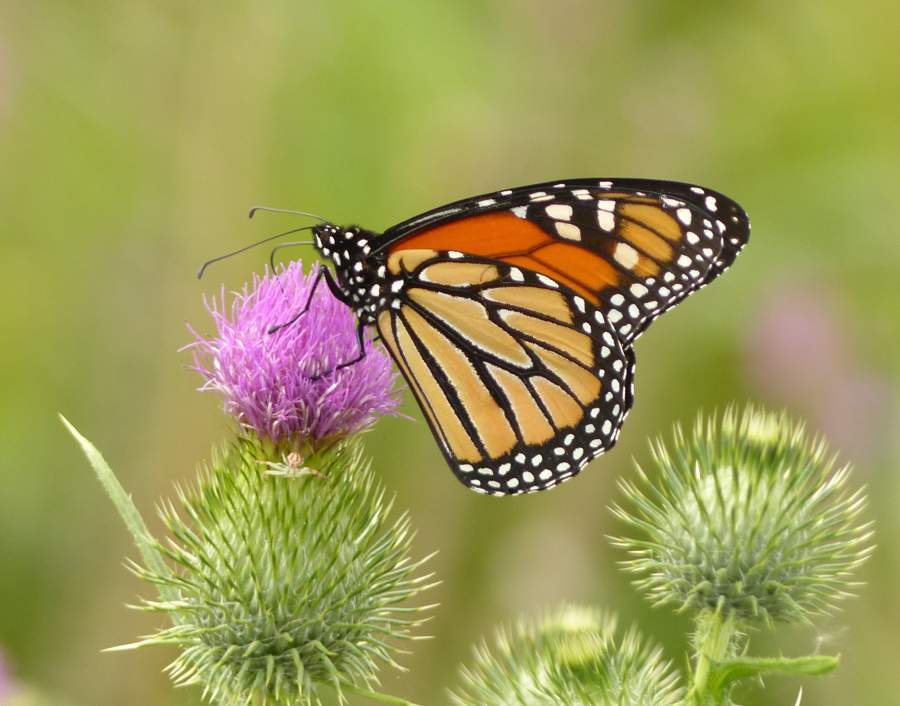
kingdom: Animalia
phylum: Arthropoda
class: Insecta
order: Lepidoptera
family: Nymphalidae
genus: Danaus
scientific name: Danaus plexippus
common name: Monarch
